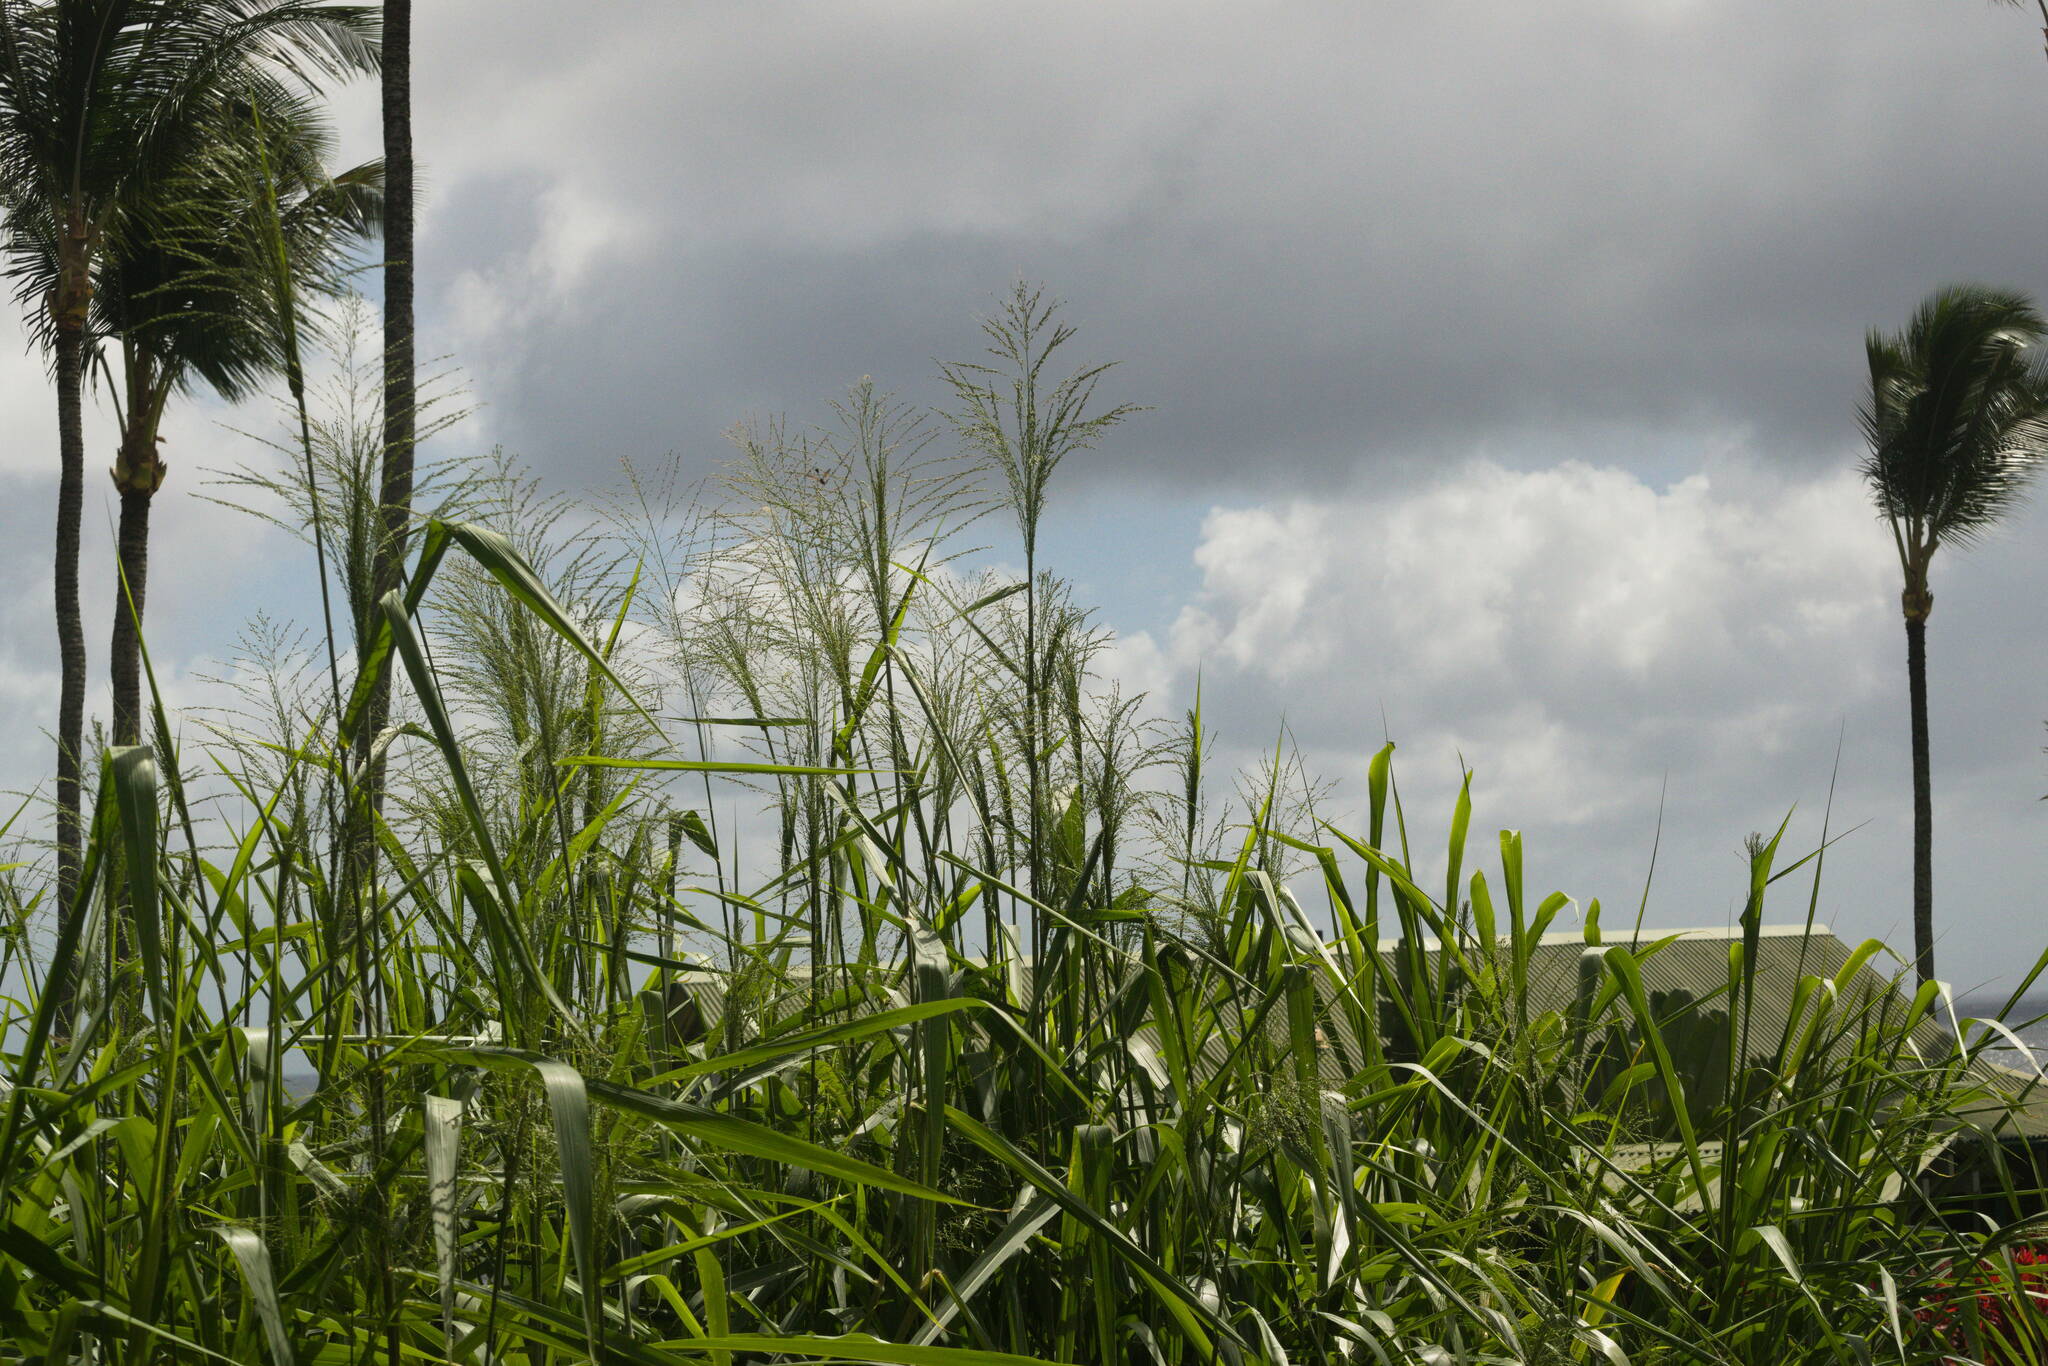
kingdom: Plantae
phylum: Tracheophyta
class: Liliopsida
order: Poales
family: Poaceae
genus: Megathyrsus
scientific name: Megathyrsus maximus
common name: Guineagrass
